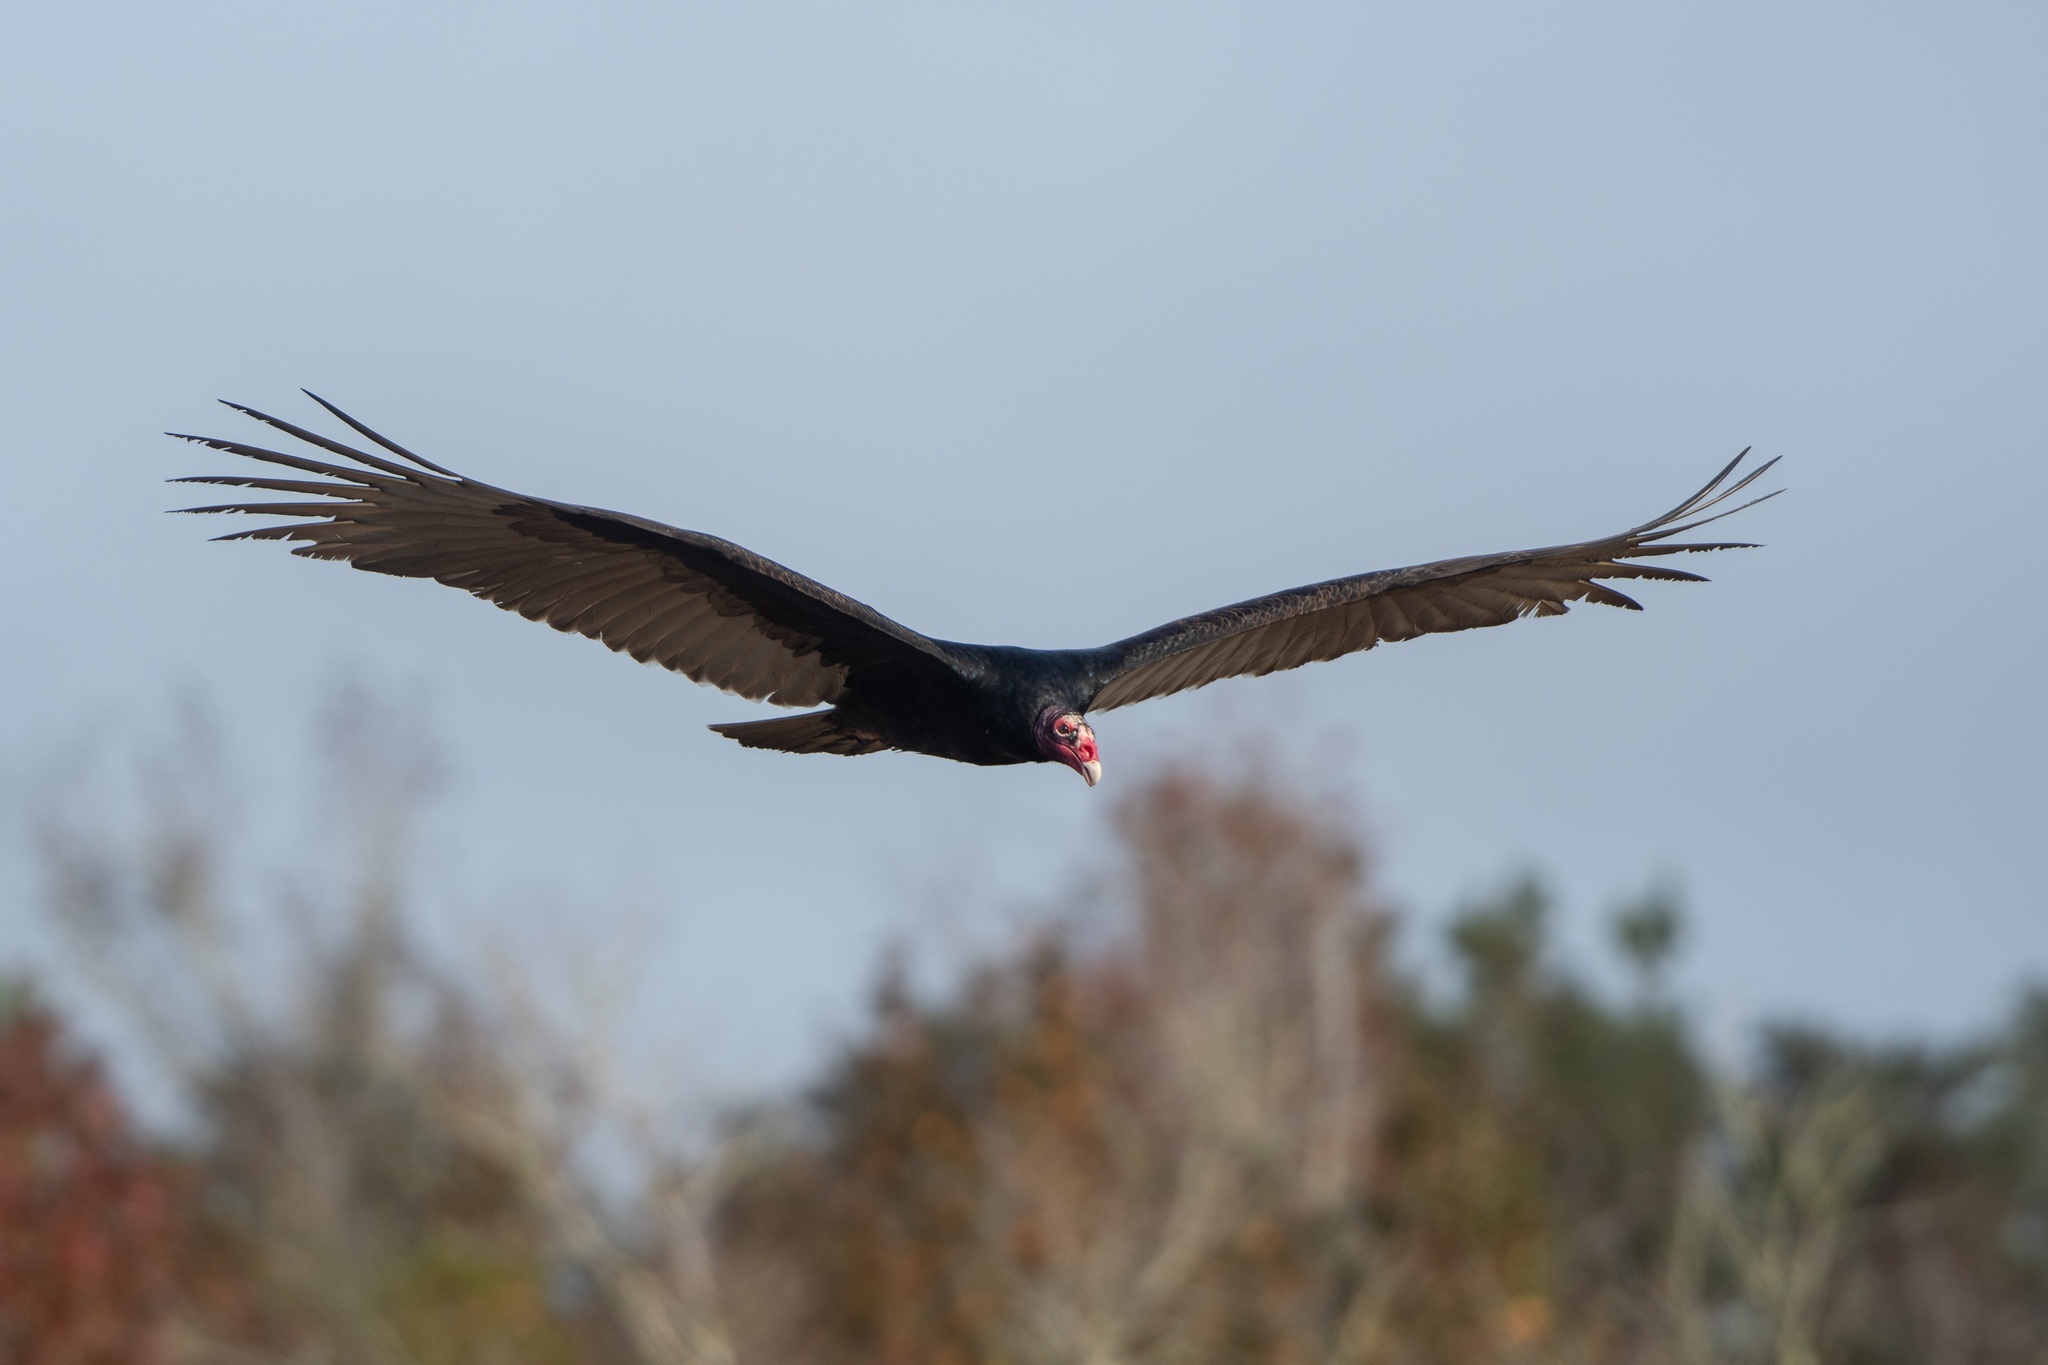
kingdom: Animalia
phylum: Chordata
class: Aves
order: Accipitriformes
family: Cathartidae
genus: Cathartes
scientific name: Cathartes aura
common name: Turkey vulture
